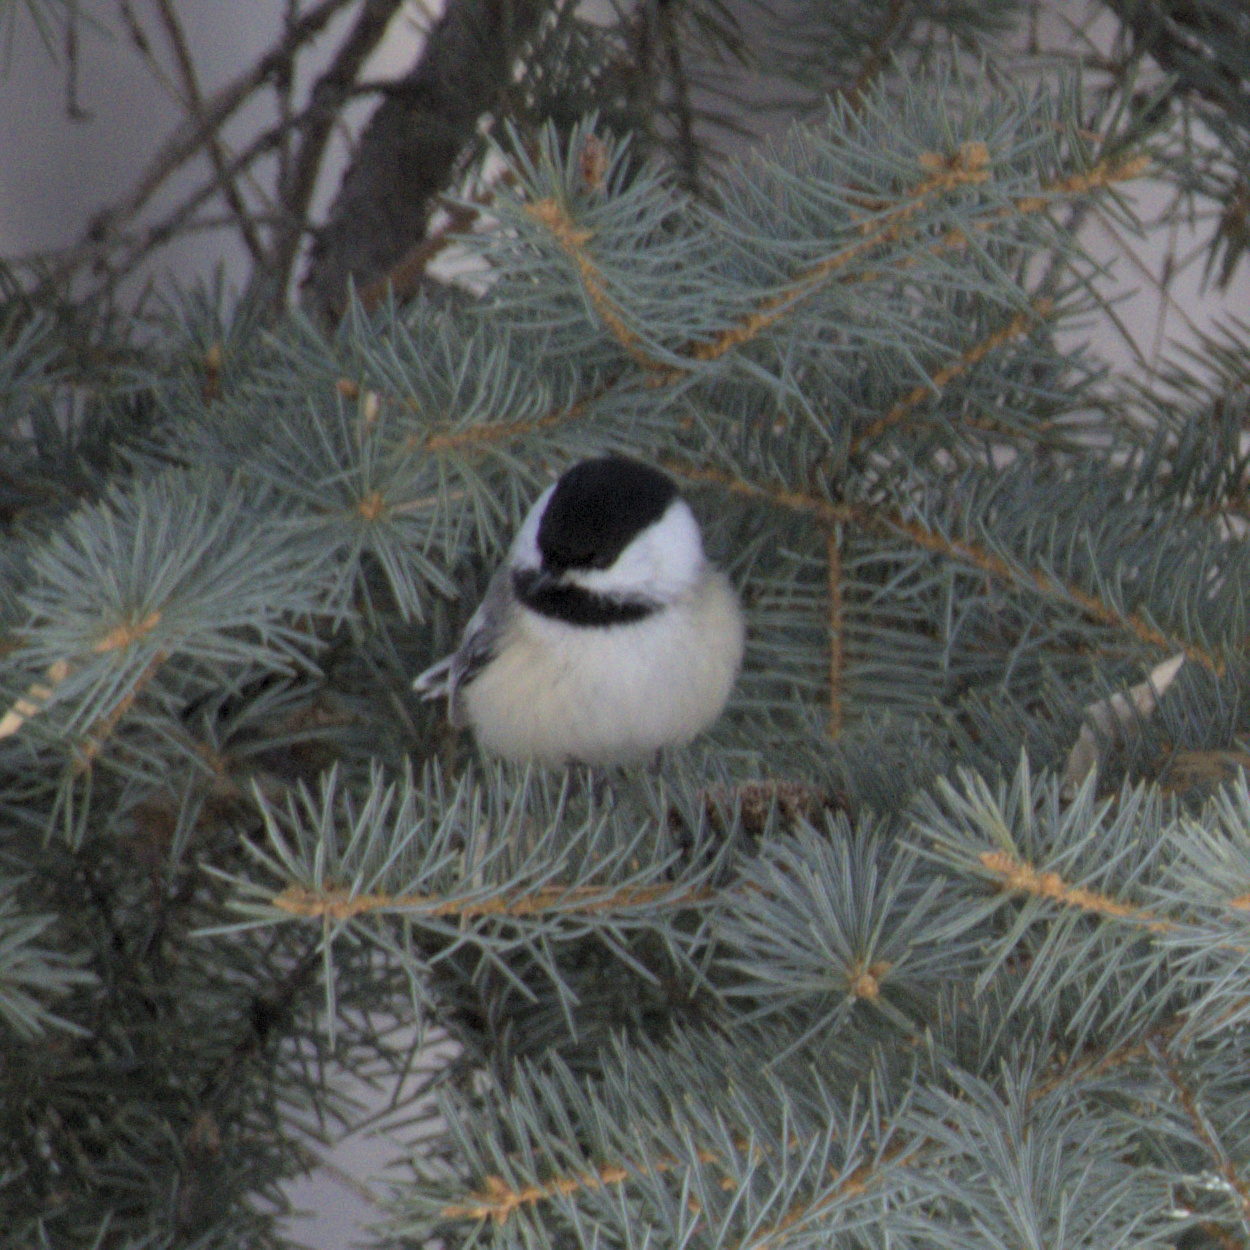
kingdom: Animalia
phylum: Chordata
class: Aves
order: Passeriformes
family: Paridae
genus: Poecile
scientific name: Poecile atricapillus
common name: Black-capped chickadee
